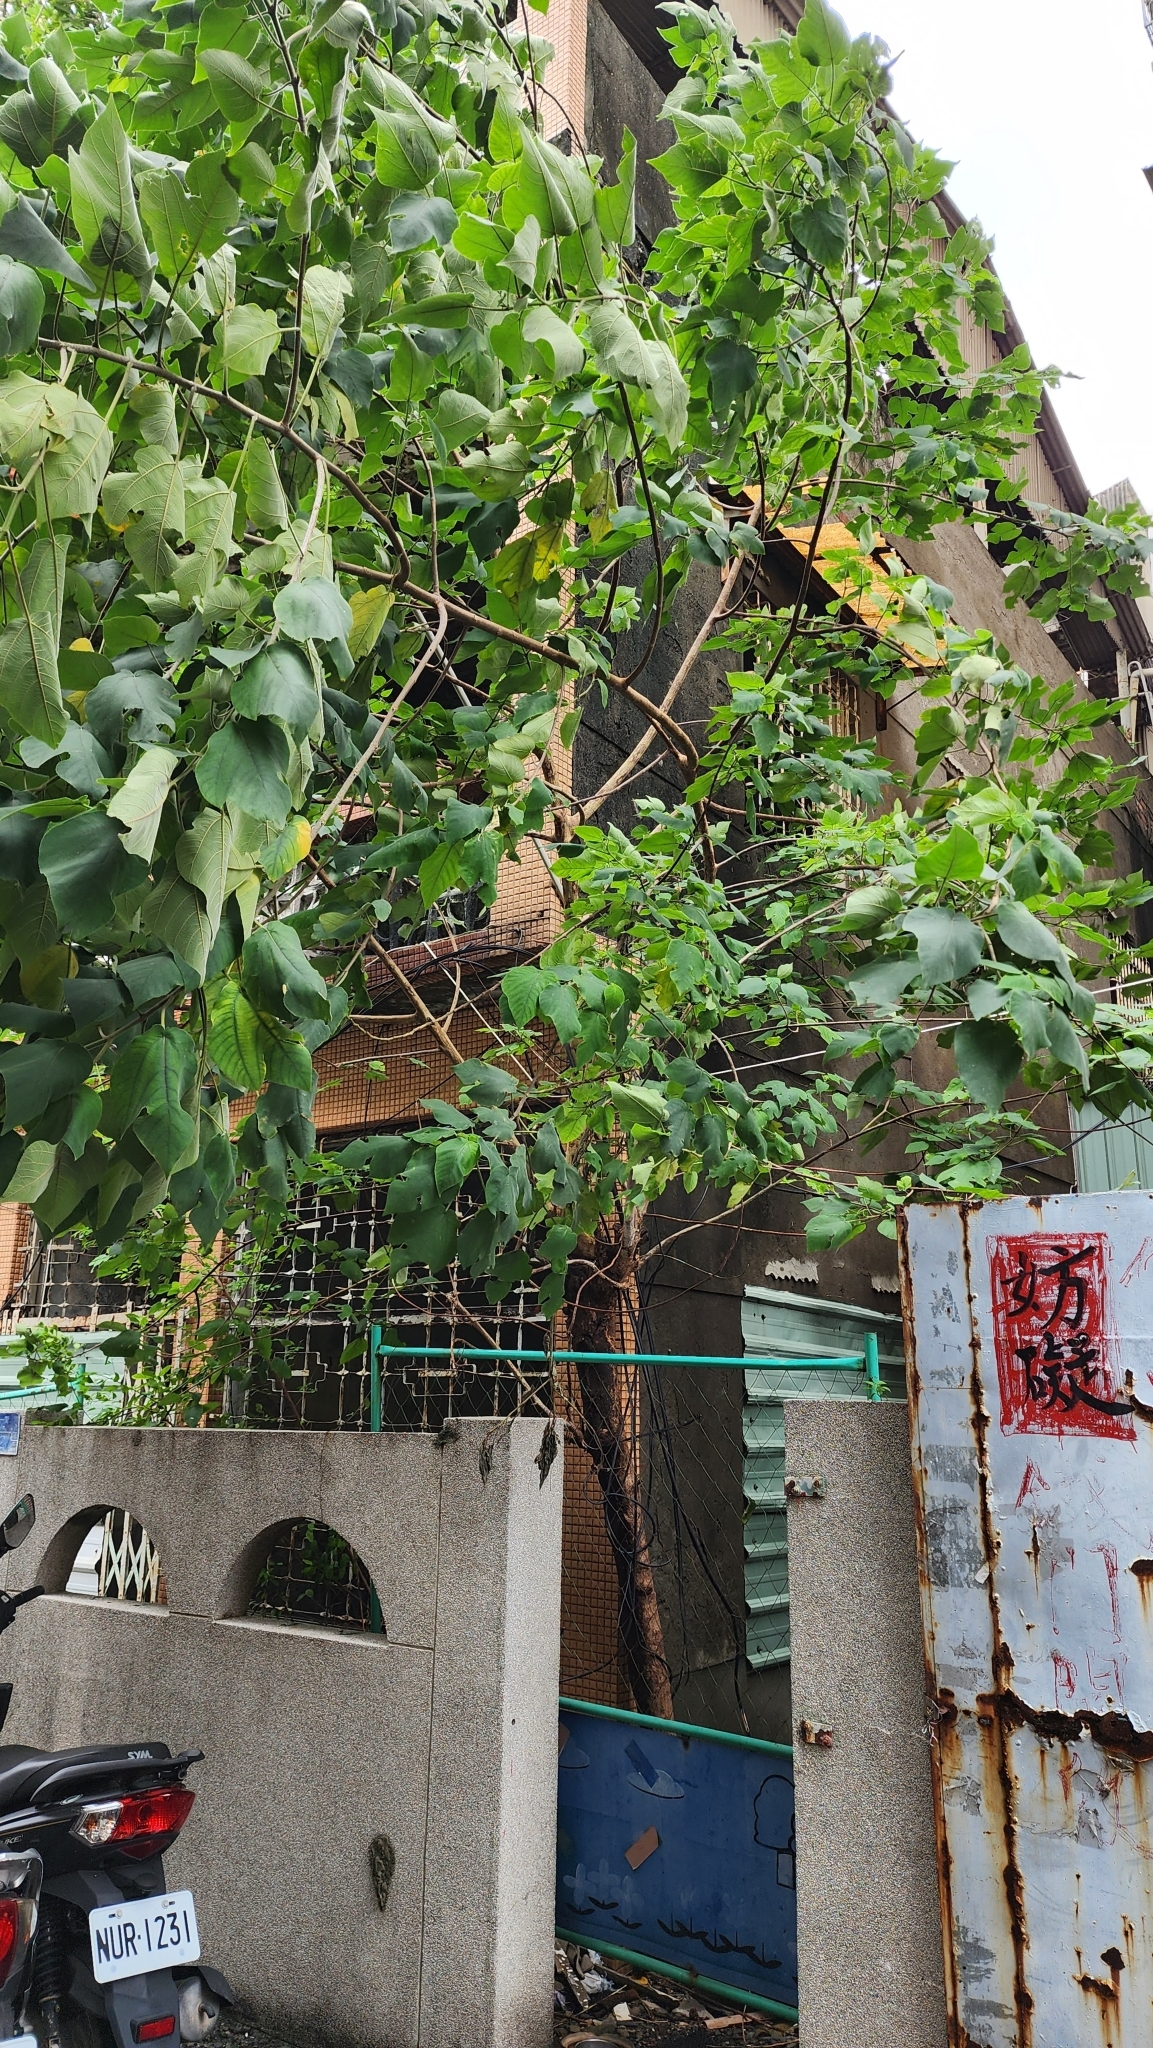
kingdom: Plantae
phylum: Tracheophyta
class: Magnoliopsida
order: Rosales
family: Moraceae
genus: Broussonetia
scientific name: Broussonetia papyrifera
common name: Paper mulberry
